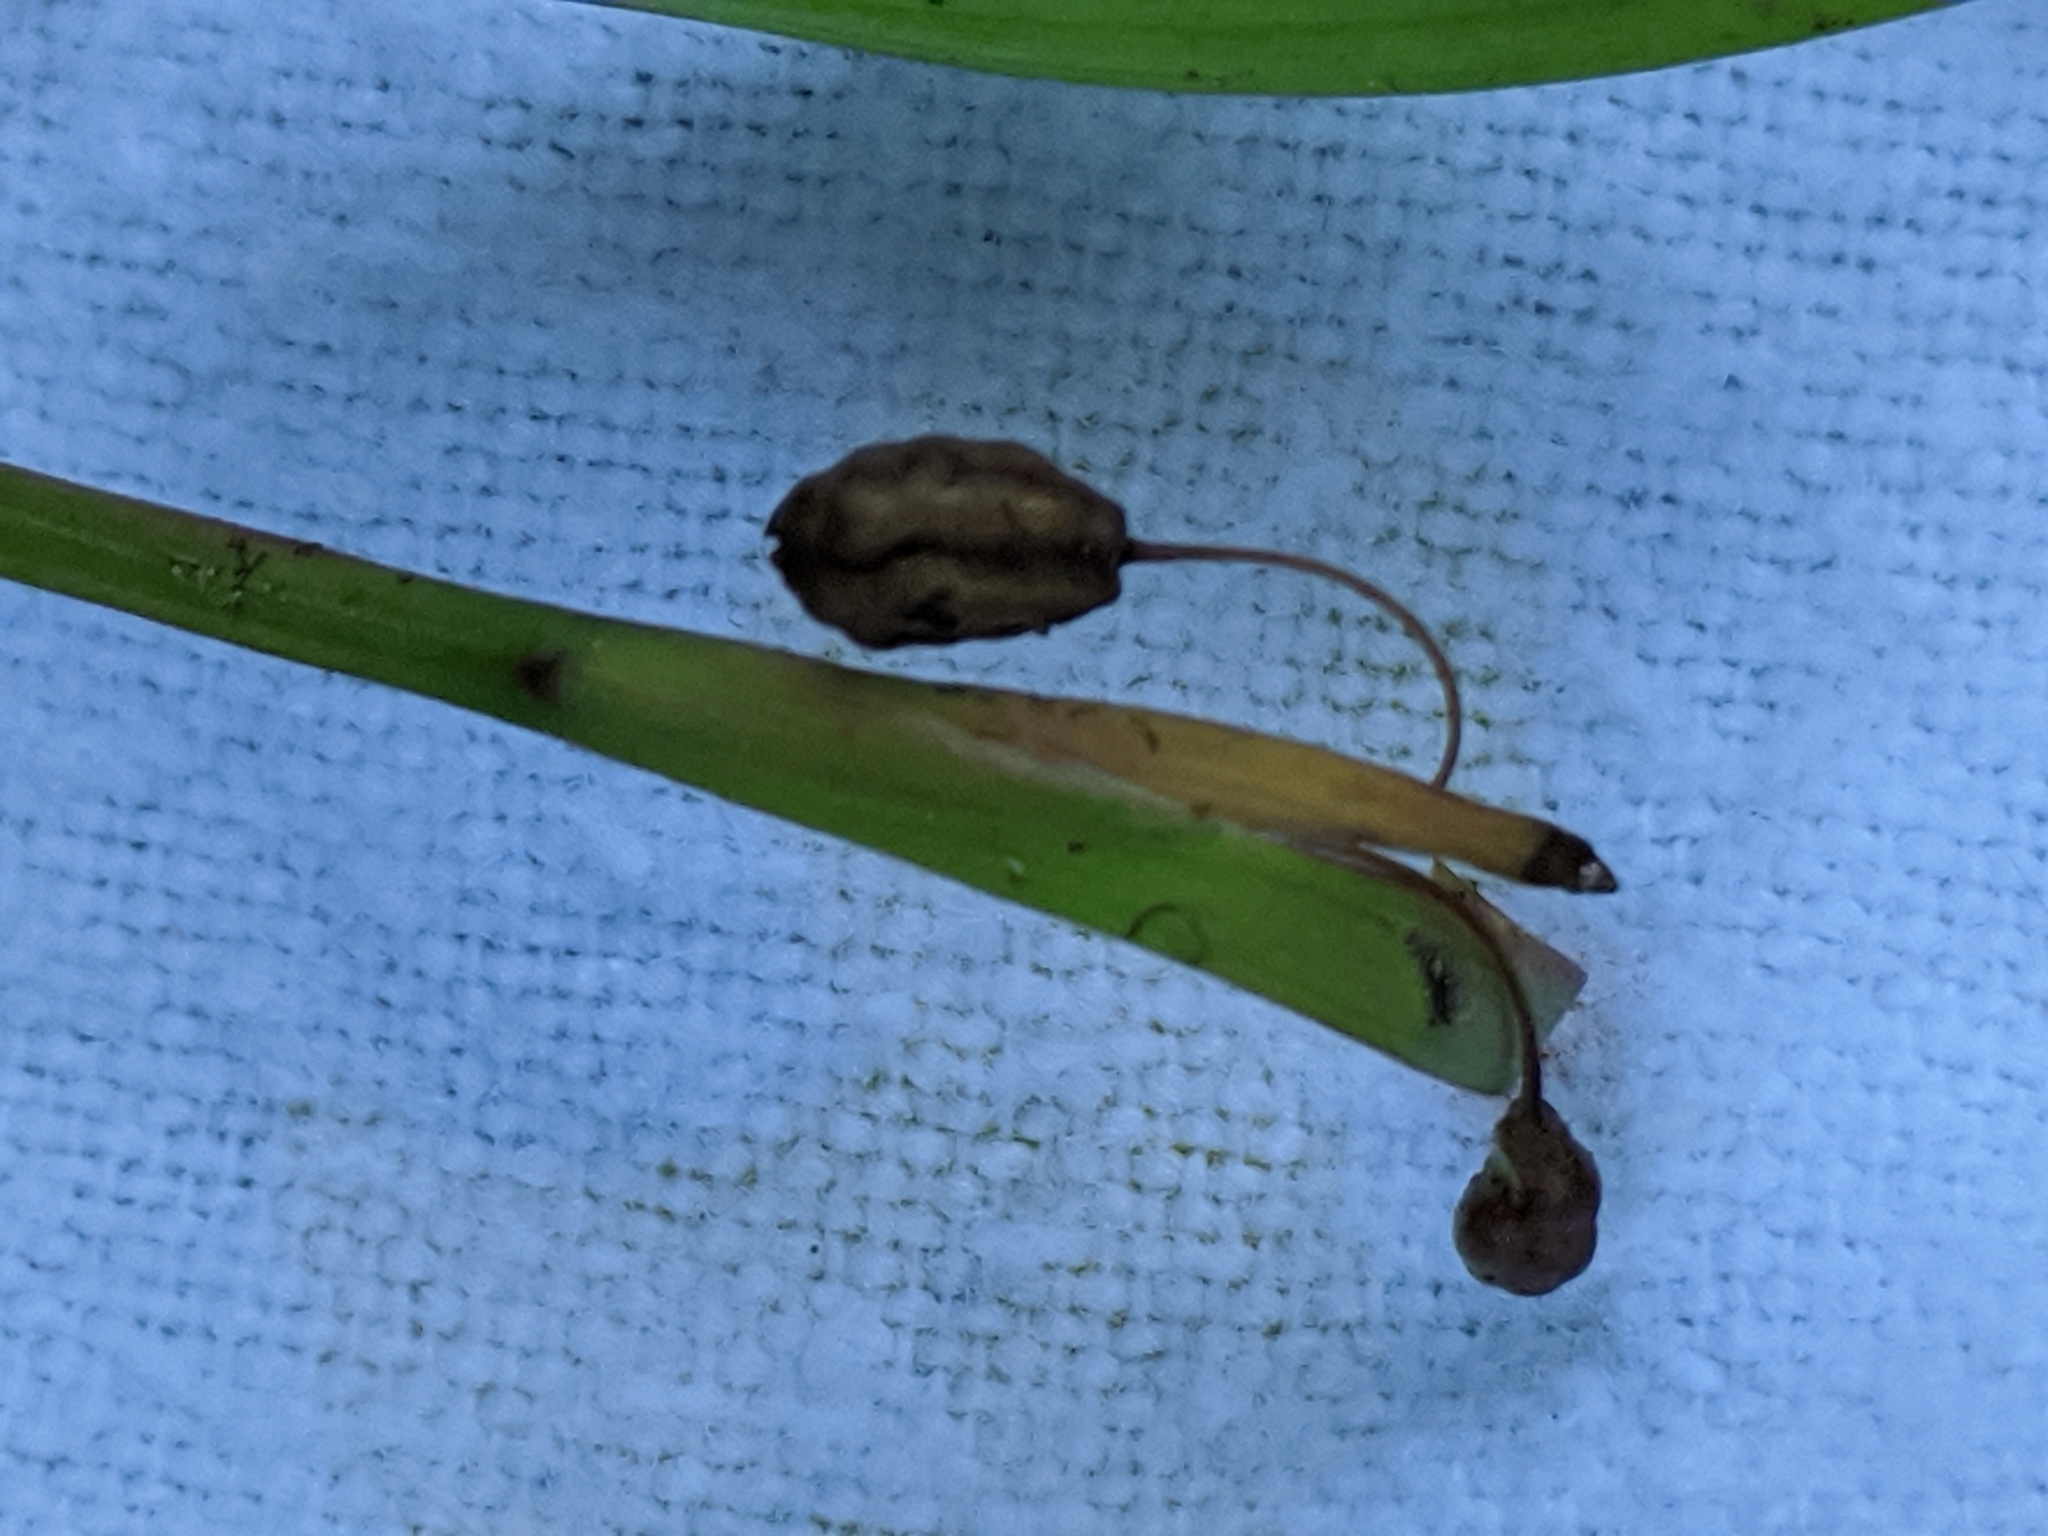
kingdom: Plantae
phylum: Tracheophyta
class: Liliopsida
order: Asparagales
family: Iridaceae
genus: Sisyrinchium
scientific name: Sisyrinchium minus
